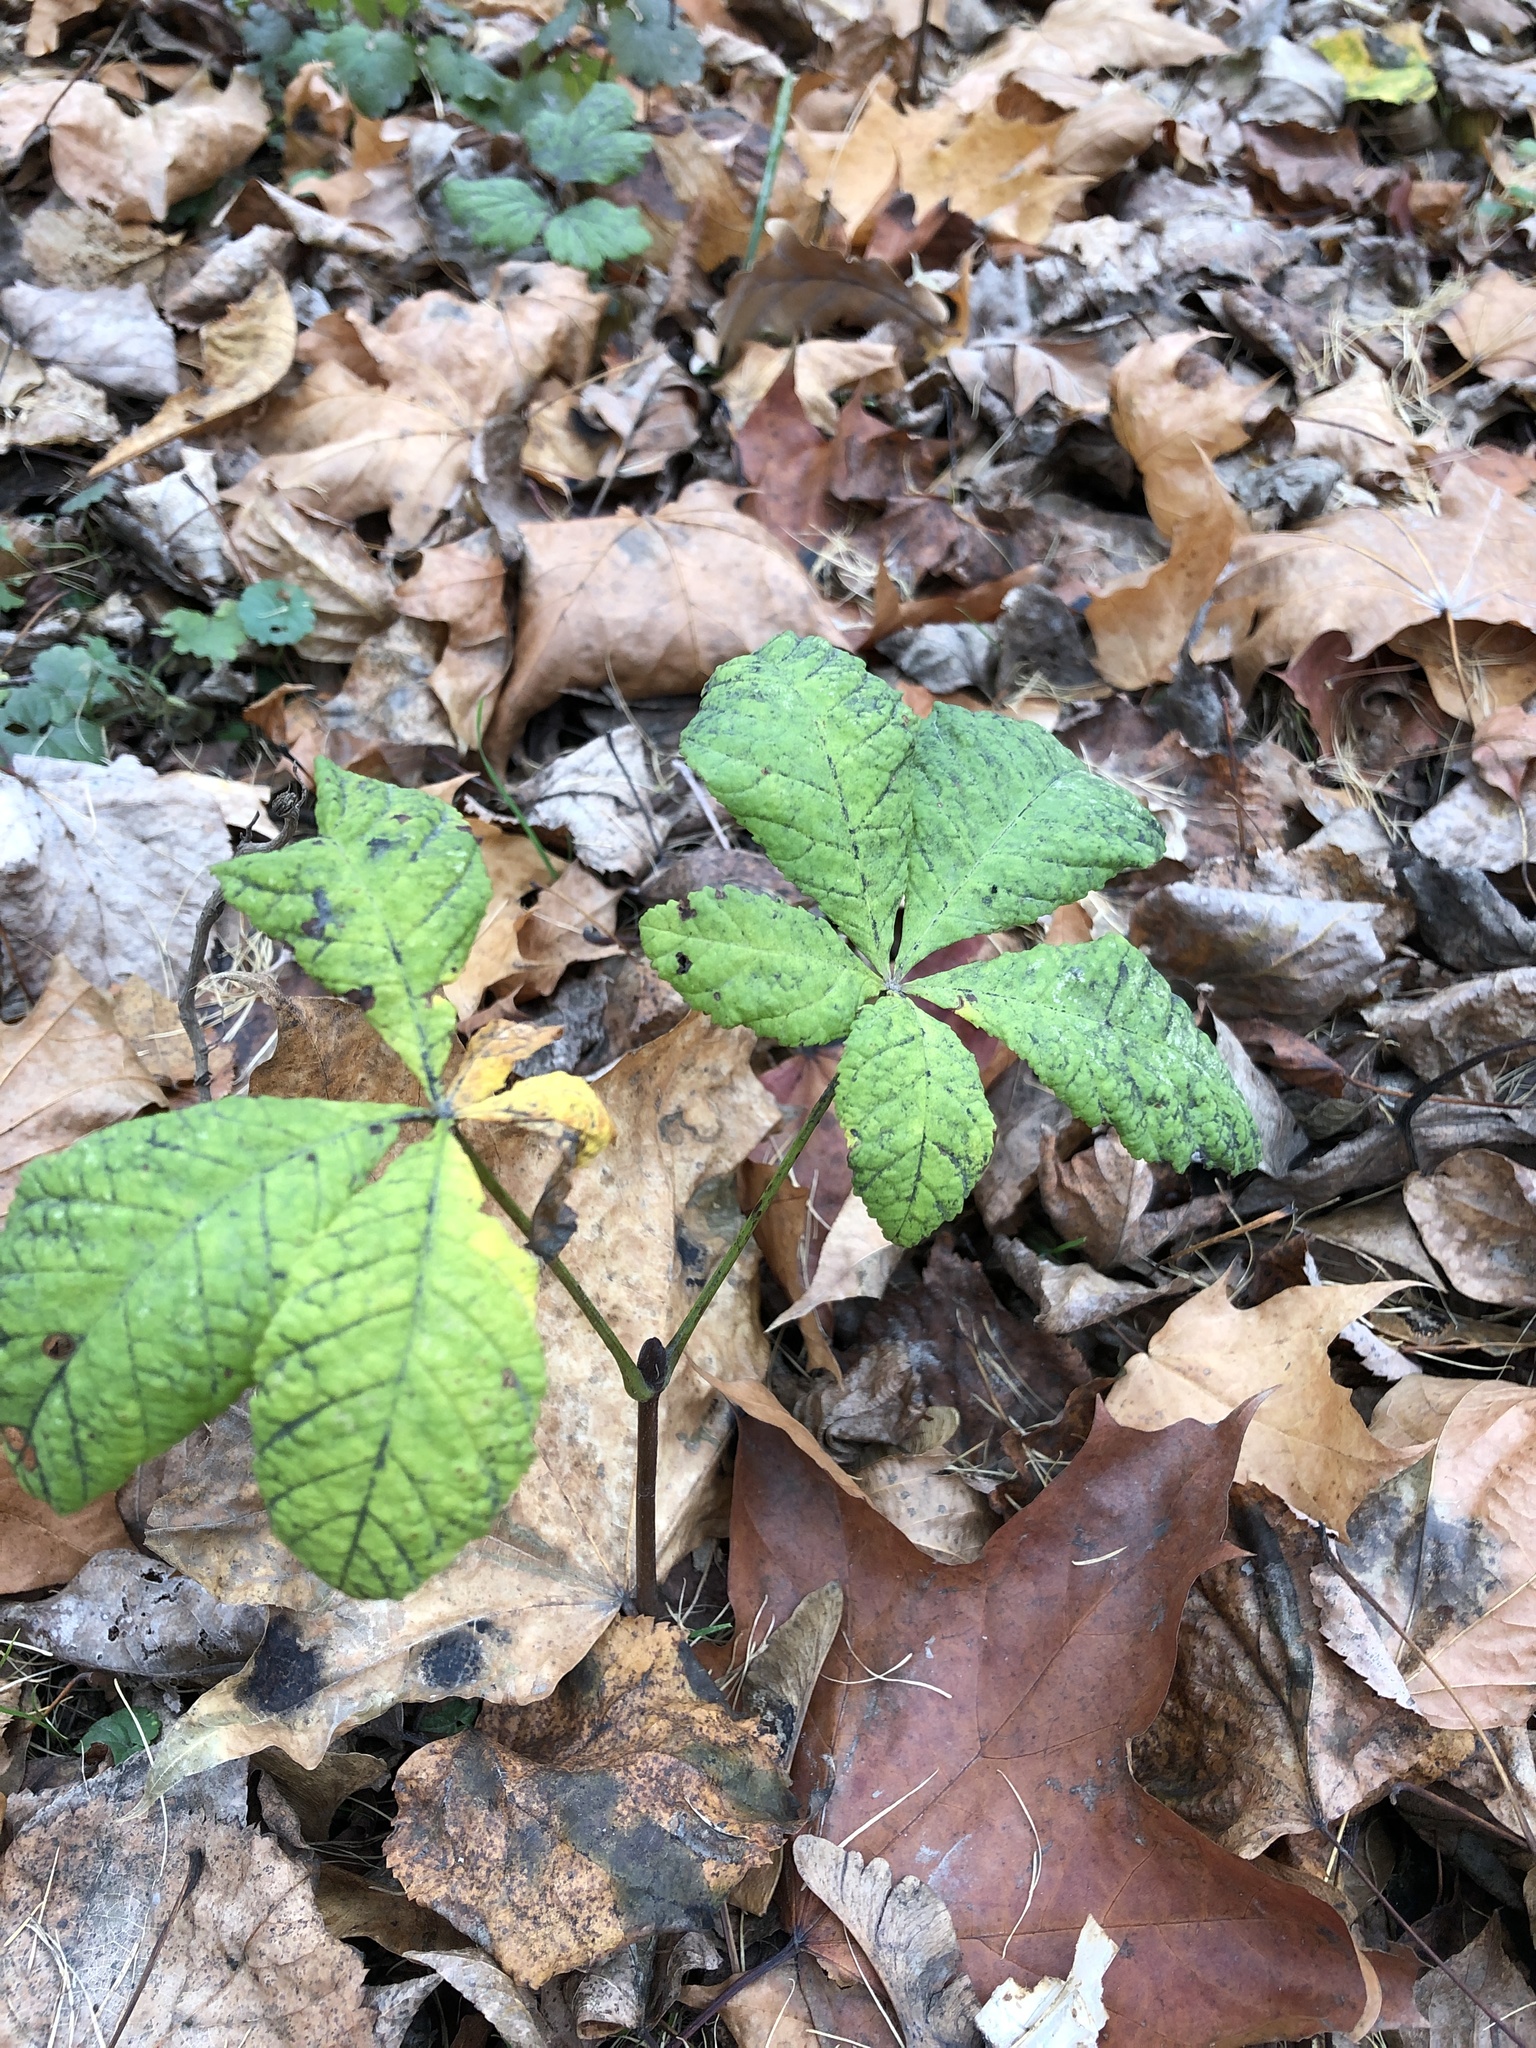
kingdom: Plantae
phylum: Tracheophyta
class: Magnoliopsida
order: Sapindales
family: Sapindaceae
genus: Aesculus
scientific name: Aesculus hippocastanum
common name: Horse-chestnut
